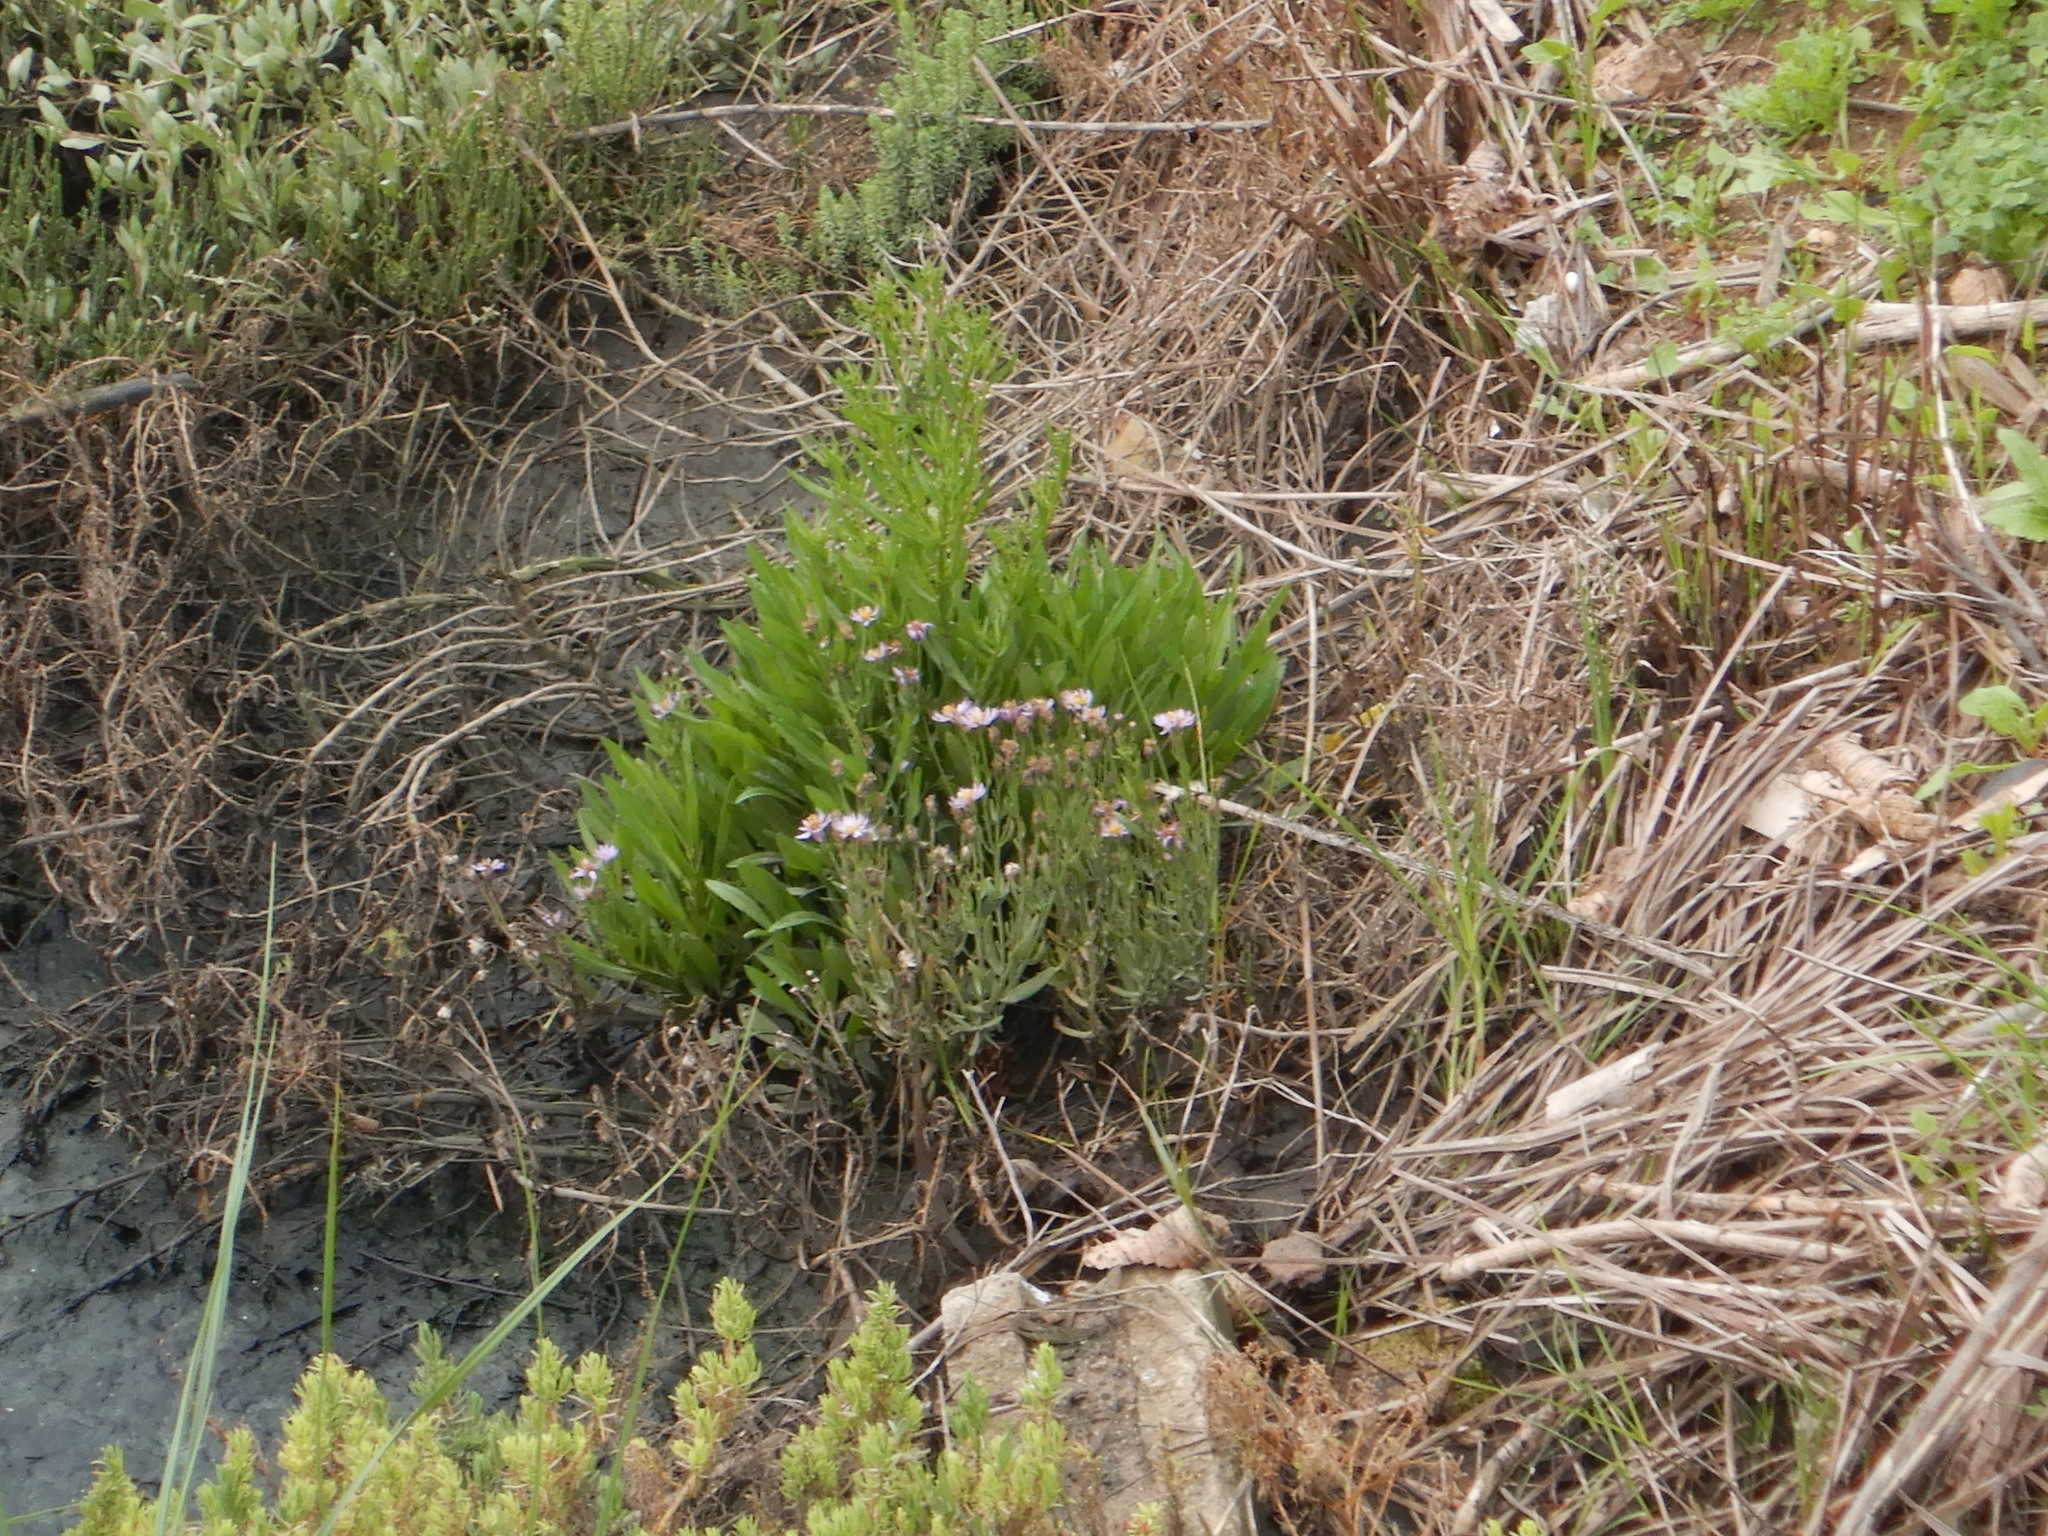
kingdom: Plantae
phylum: Tracheophyta
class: Magnoliopsida
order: Asterales
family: Asteraceae
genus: Tripolium
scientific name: Tripolium pannonicum
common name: Sea aster
